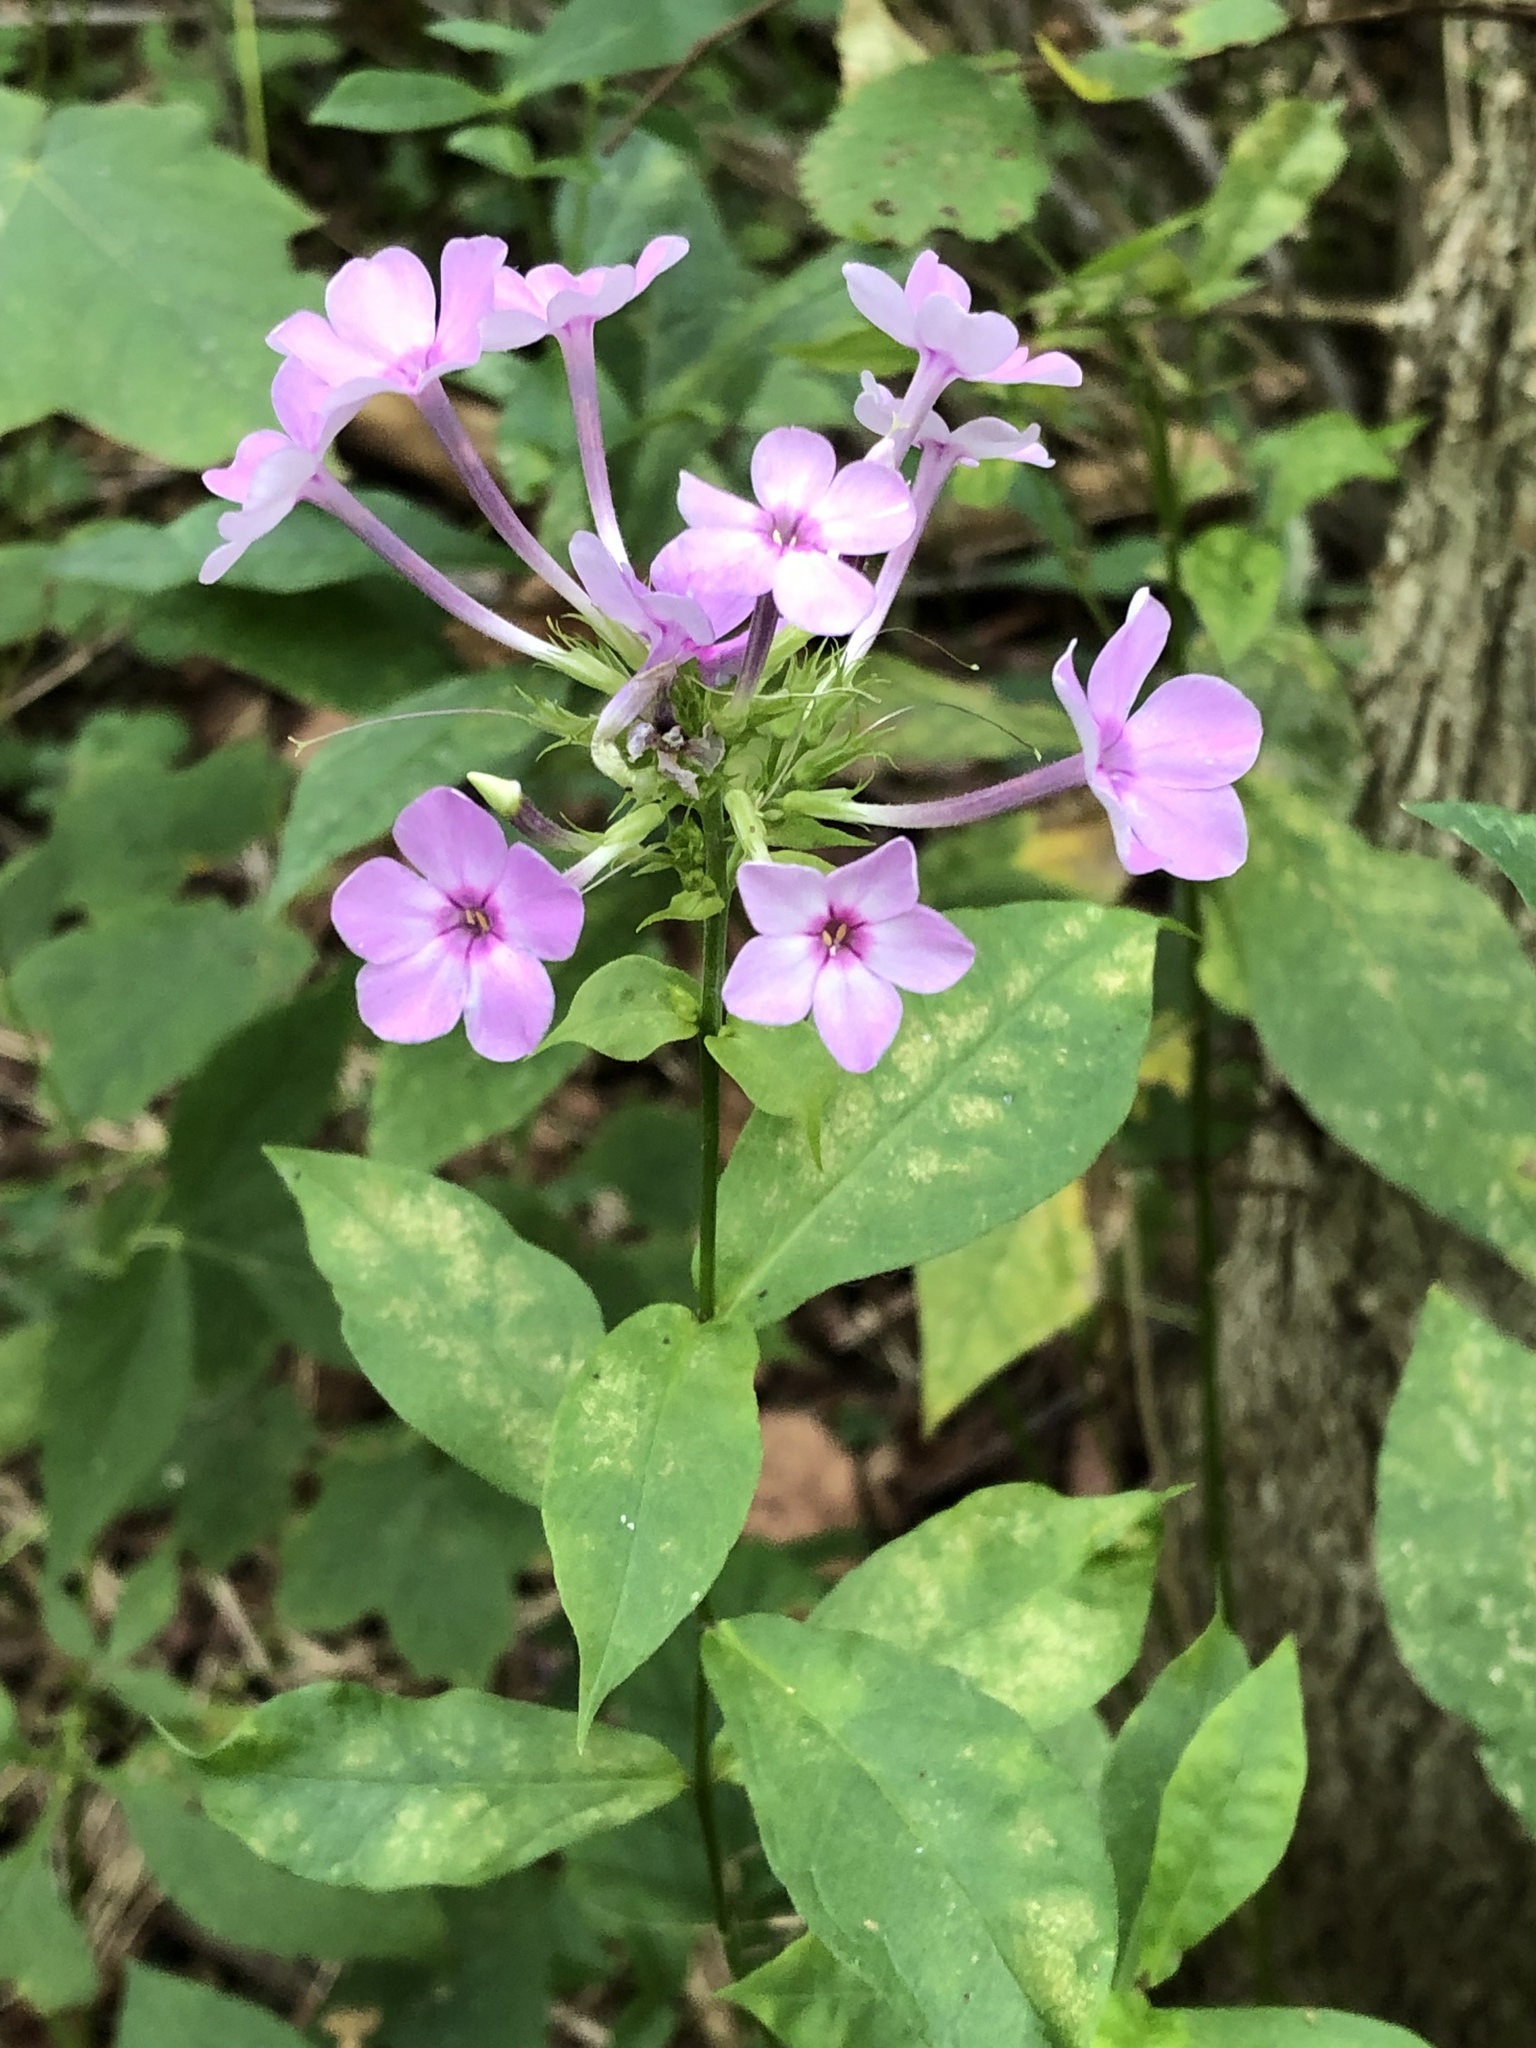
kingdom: Plantae
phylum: Tracheophyta
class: Magnoliopsida
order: Ericales
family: Polemoniaceae
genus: Phlox
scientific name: Phlox paniculata
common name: Fall phlox
